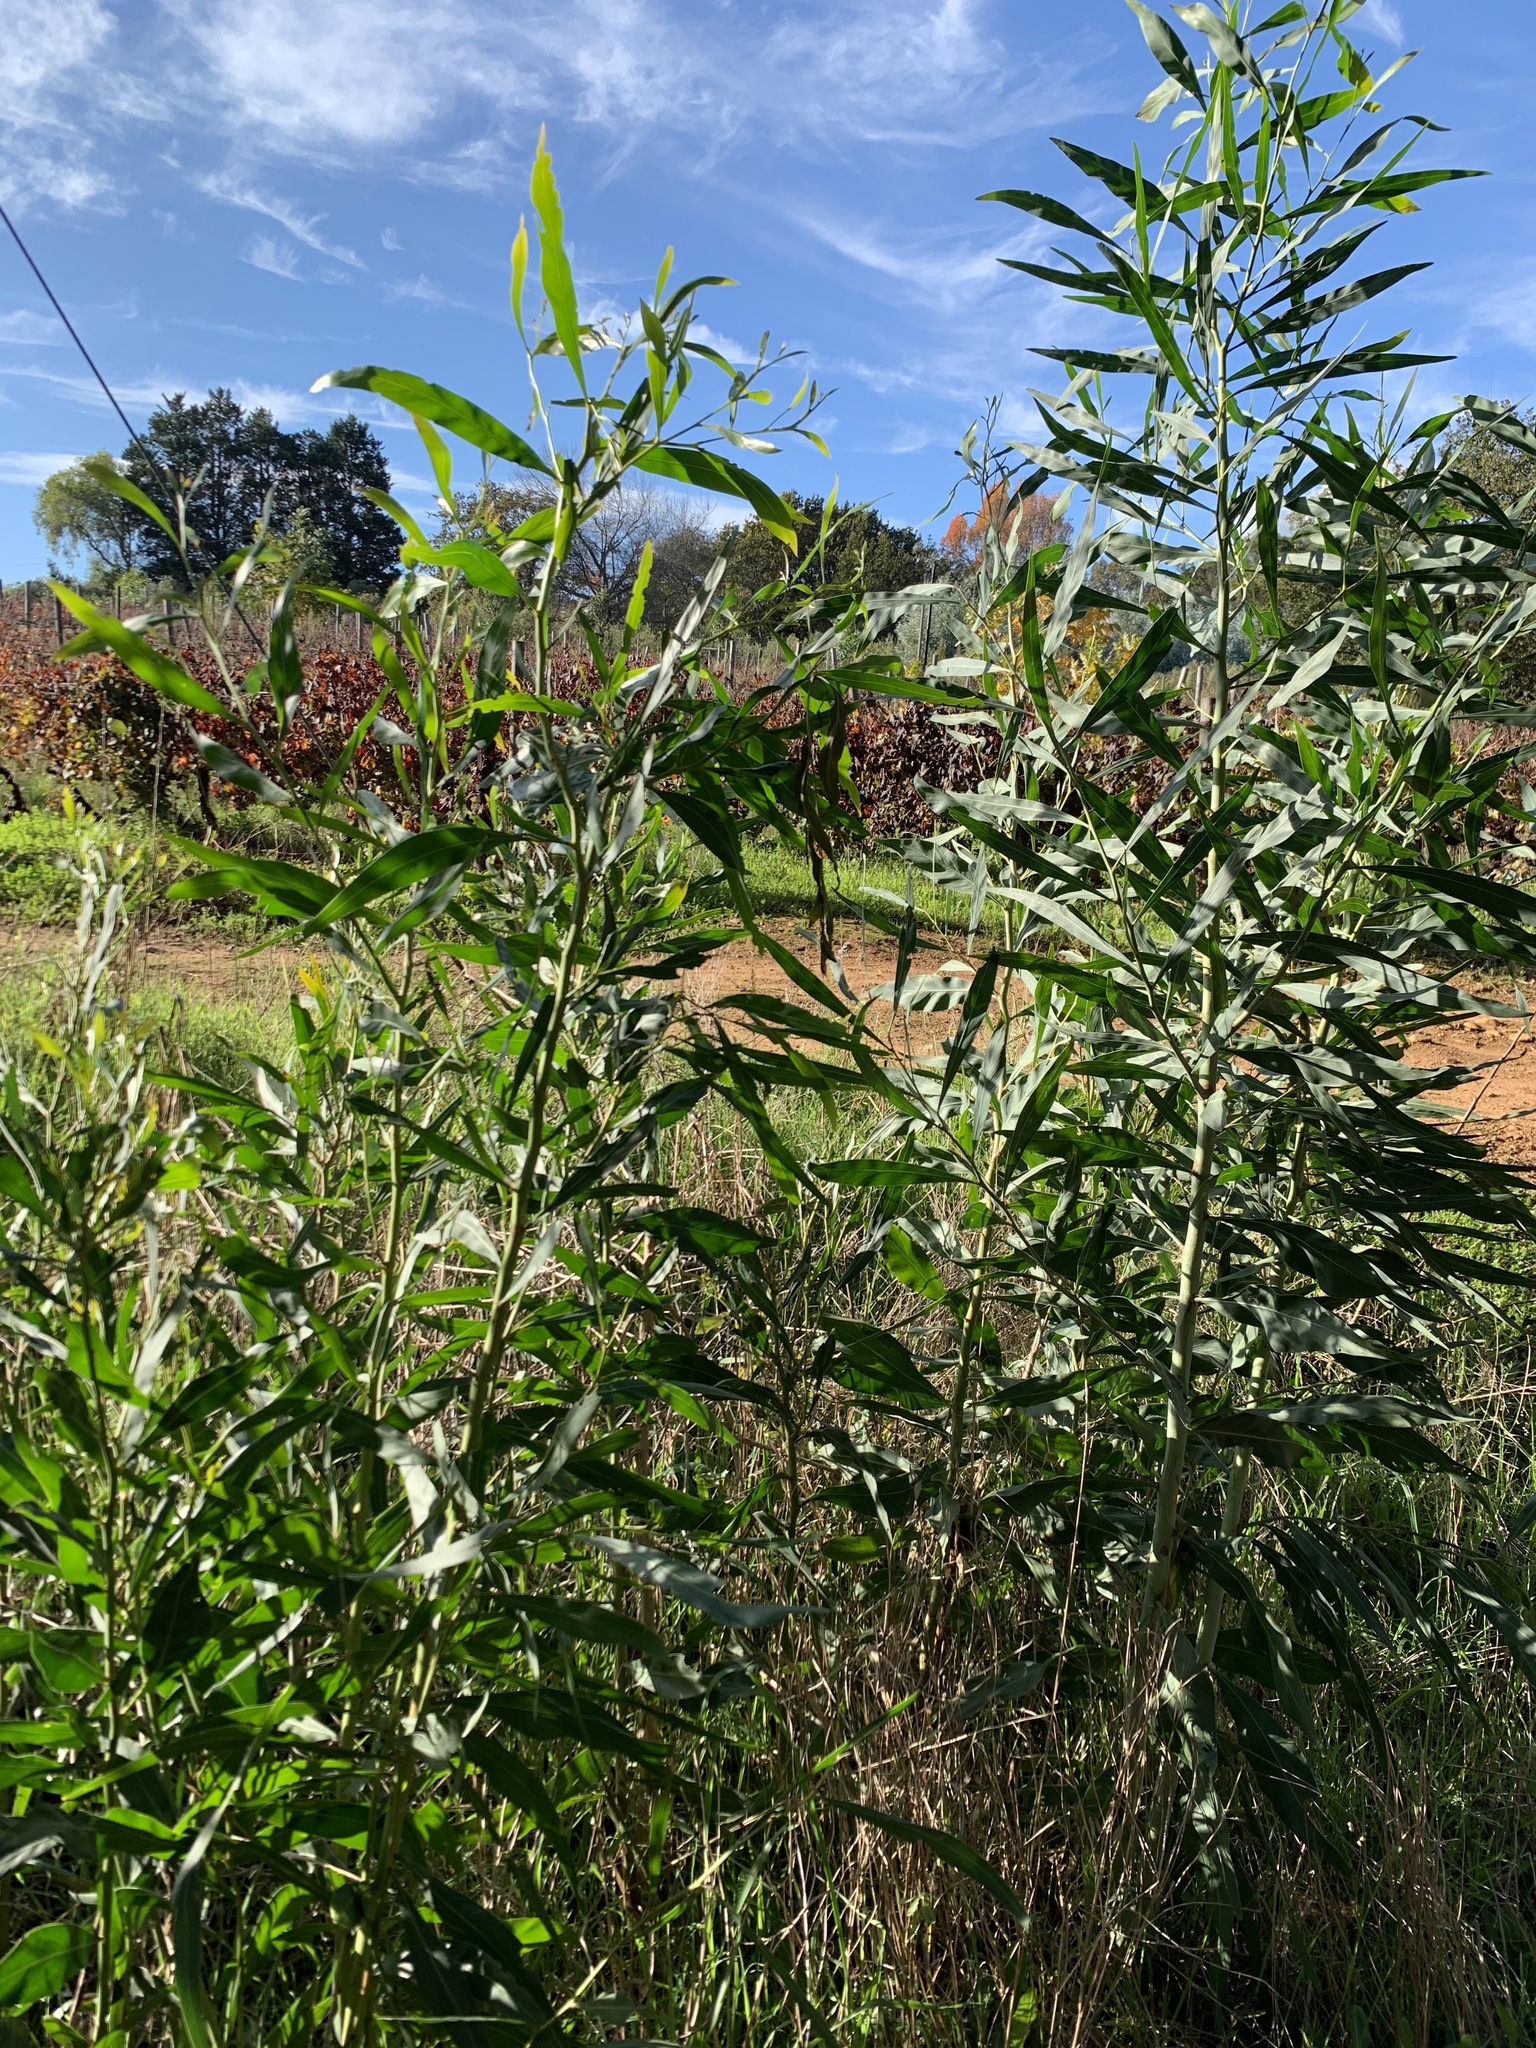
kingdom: Plantae
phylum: Tracheophyta
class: Magnoliopsida
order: Fabales
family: Fabaceae
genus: Acacia
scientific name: Acacia saligna
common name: Orange wattle
